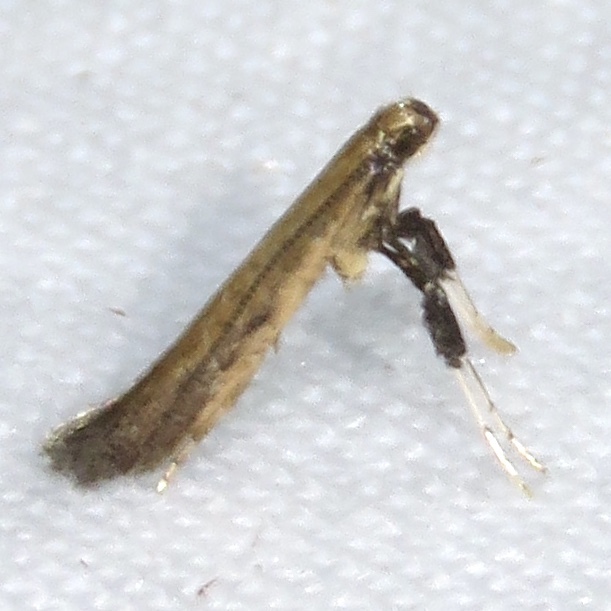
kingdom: Animalia
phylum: Arthropoda
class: Insecta
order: Lepidoptera
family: Gracillariidae
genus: Caloptilia
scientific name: Caloptilia hypericella
